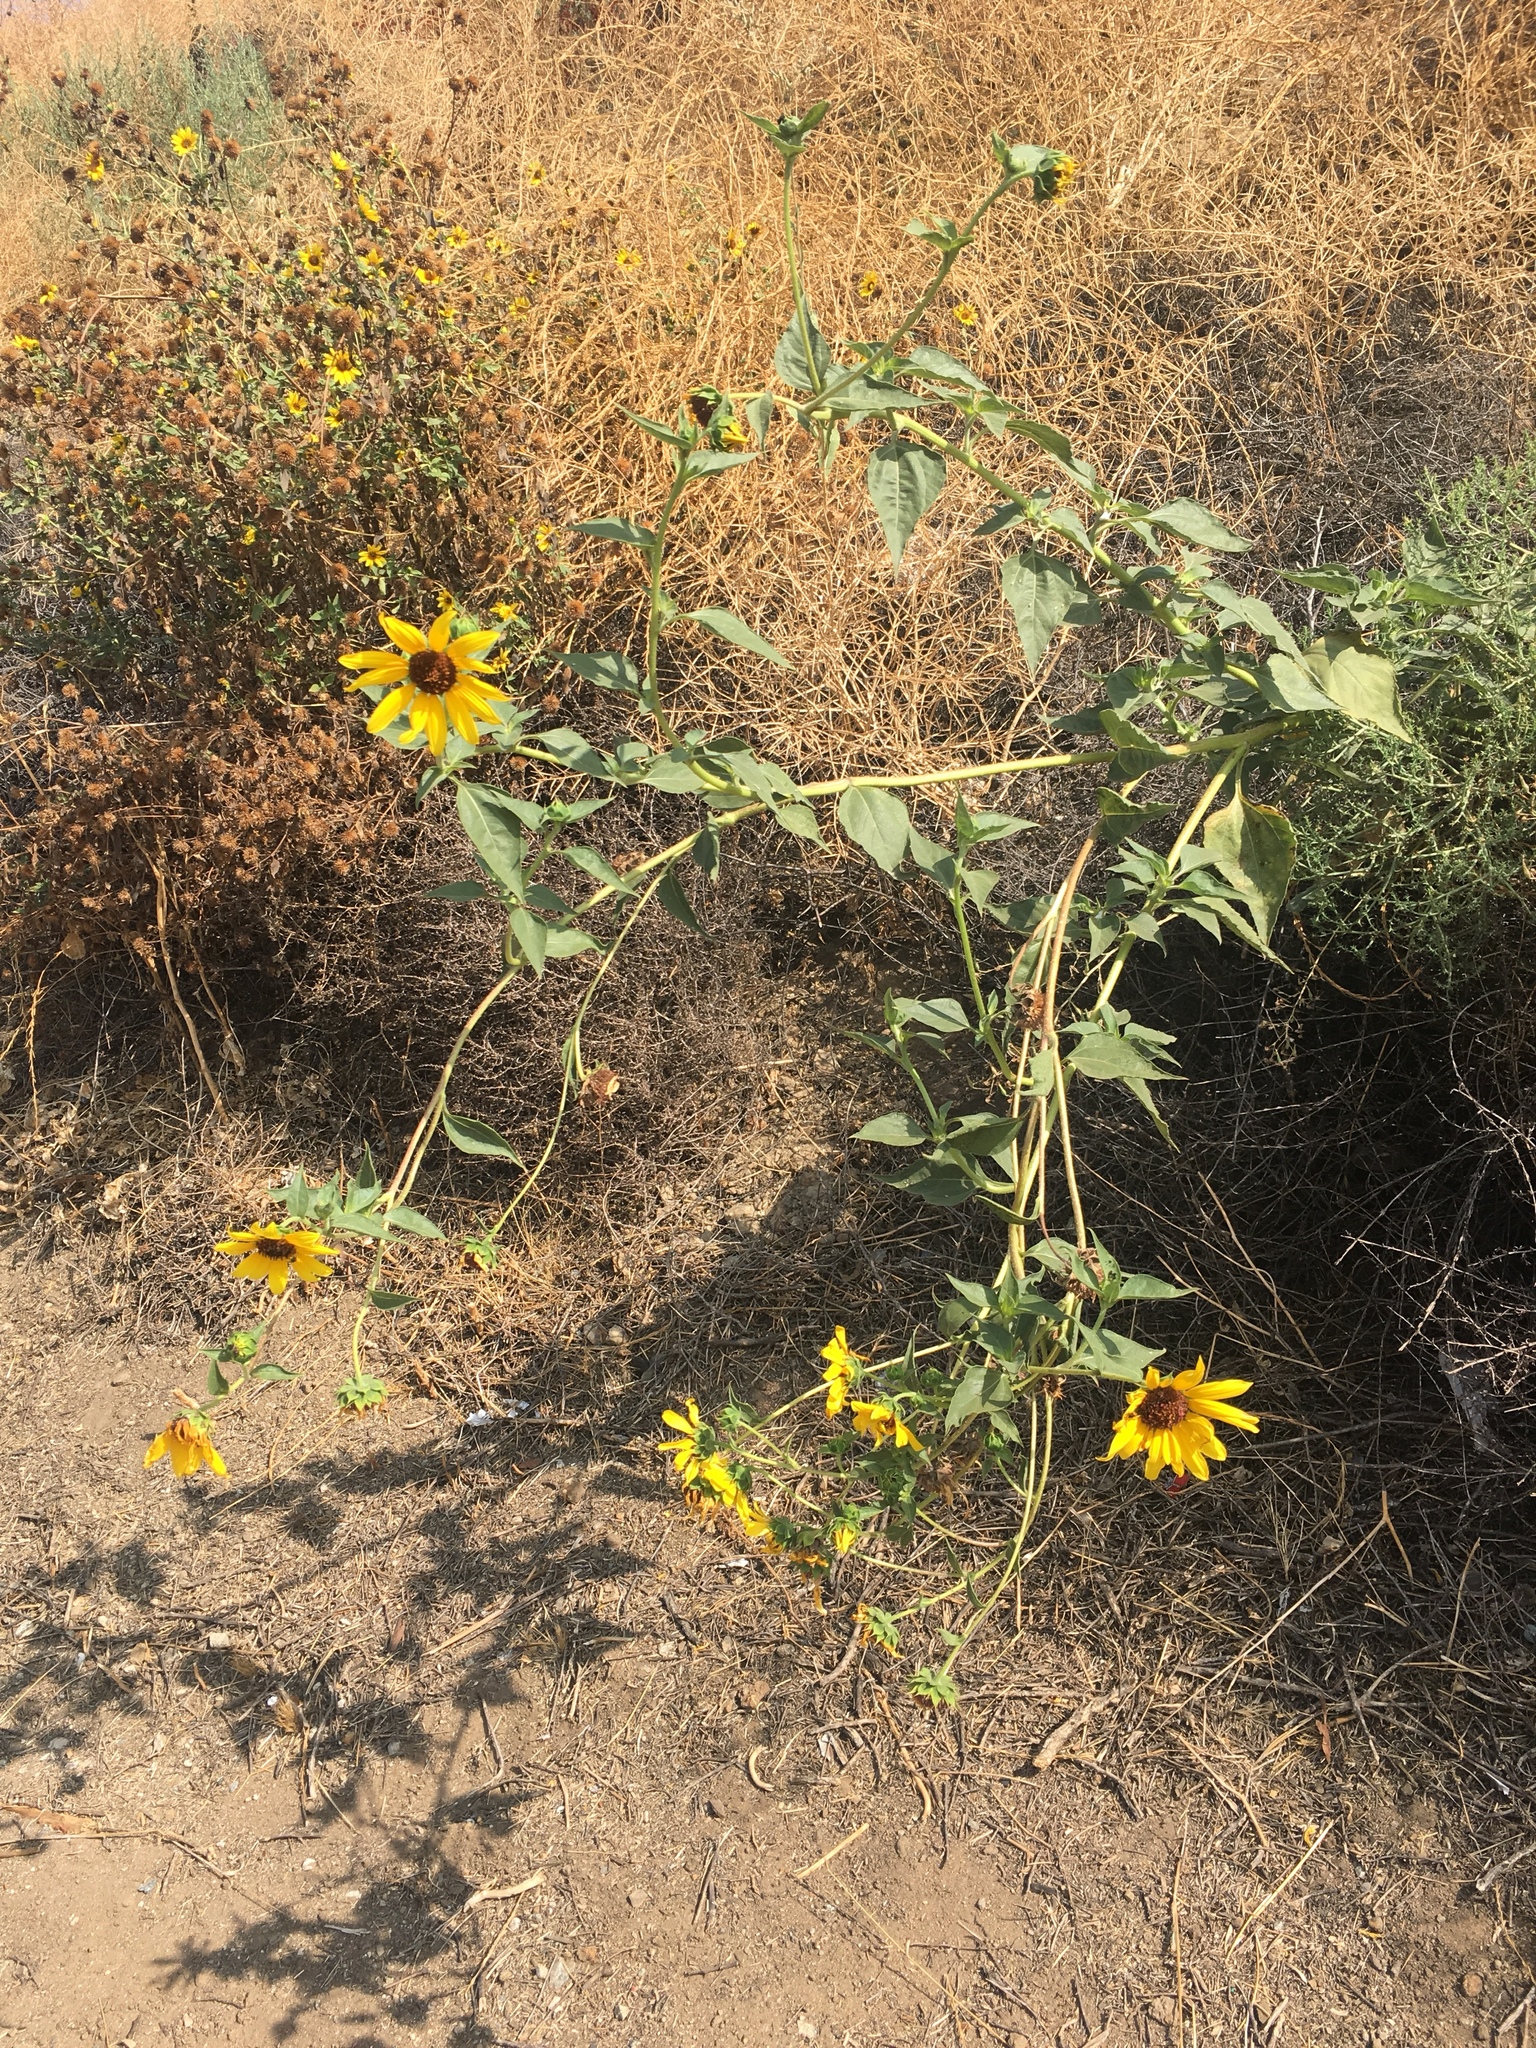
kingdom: Plantae
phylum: Tracheophyta
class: Magnoliopsida
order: Asterales
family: Asteraceae
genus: Helianthus
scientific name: Helianthus annuus
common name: Sunflower
